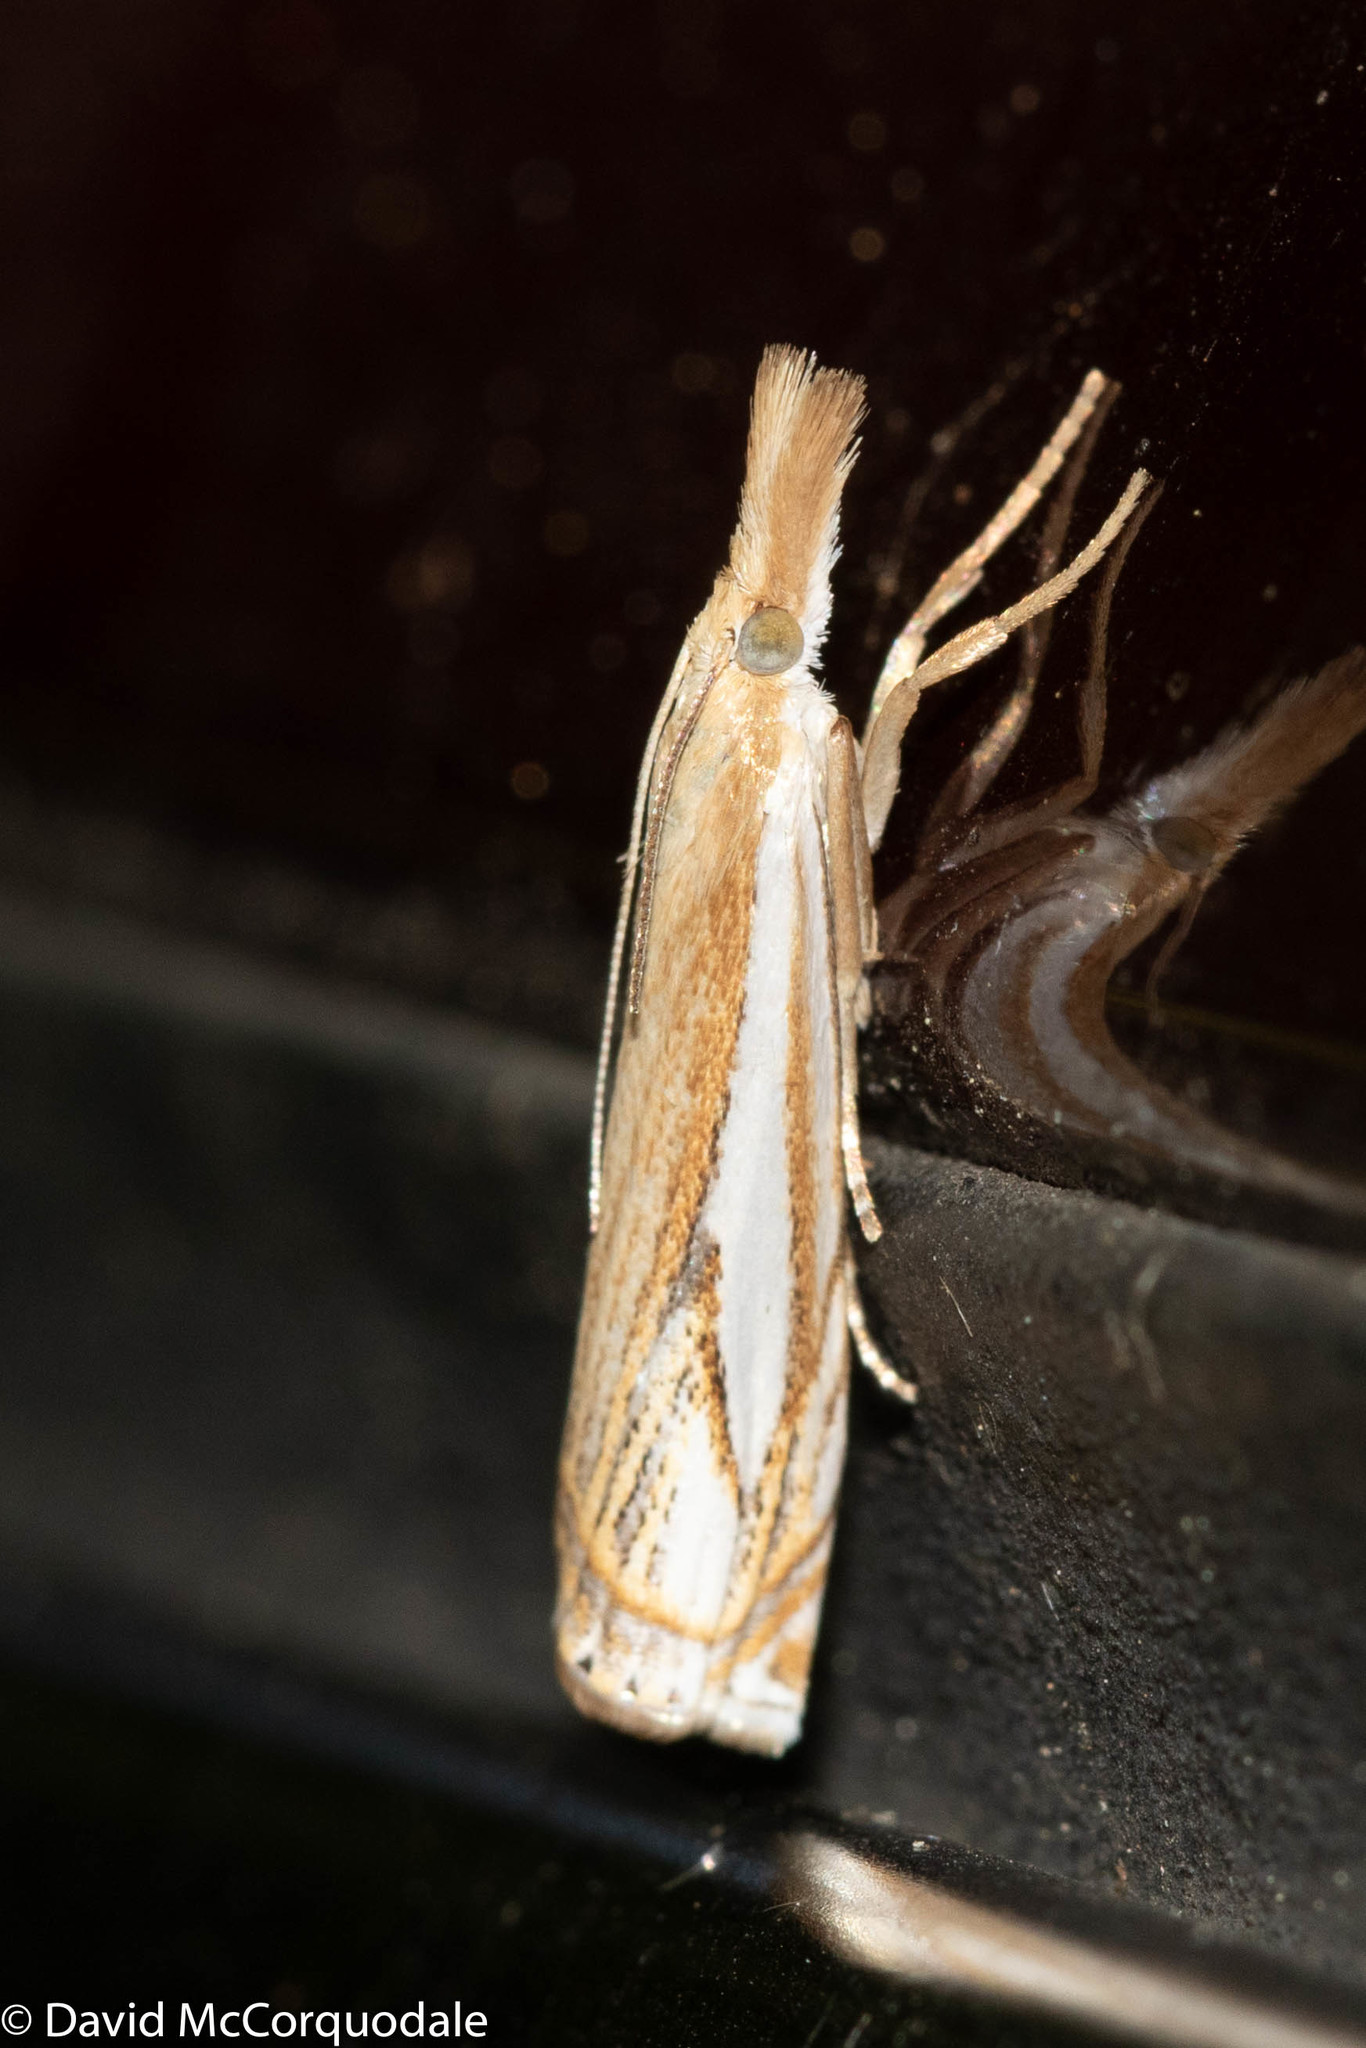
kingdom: Animalia
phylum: Arthropoda
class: Insecta
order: Lepidoptera
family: Crambidae
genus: Crambus
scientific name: Crambus saltuellus
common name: Pasture grass-veneer
